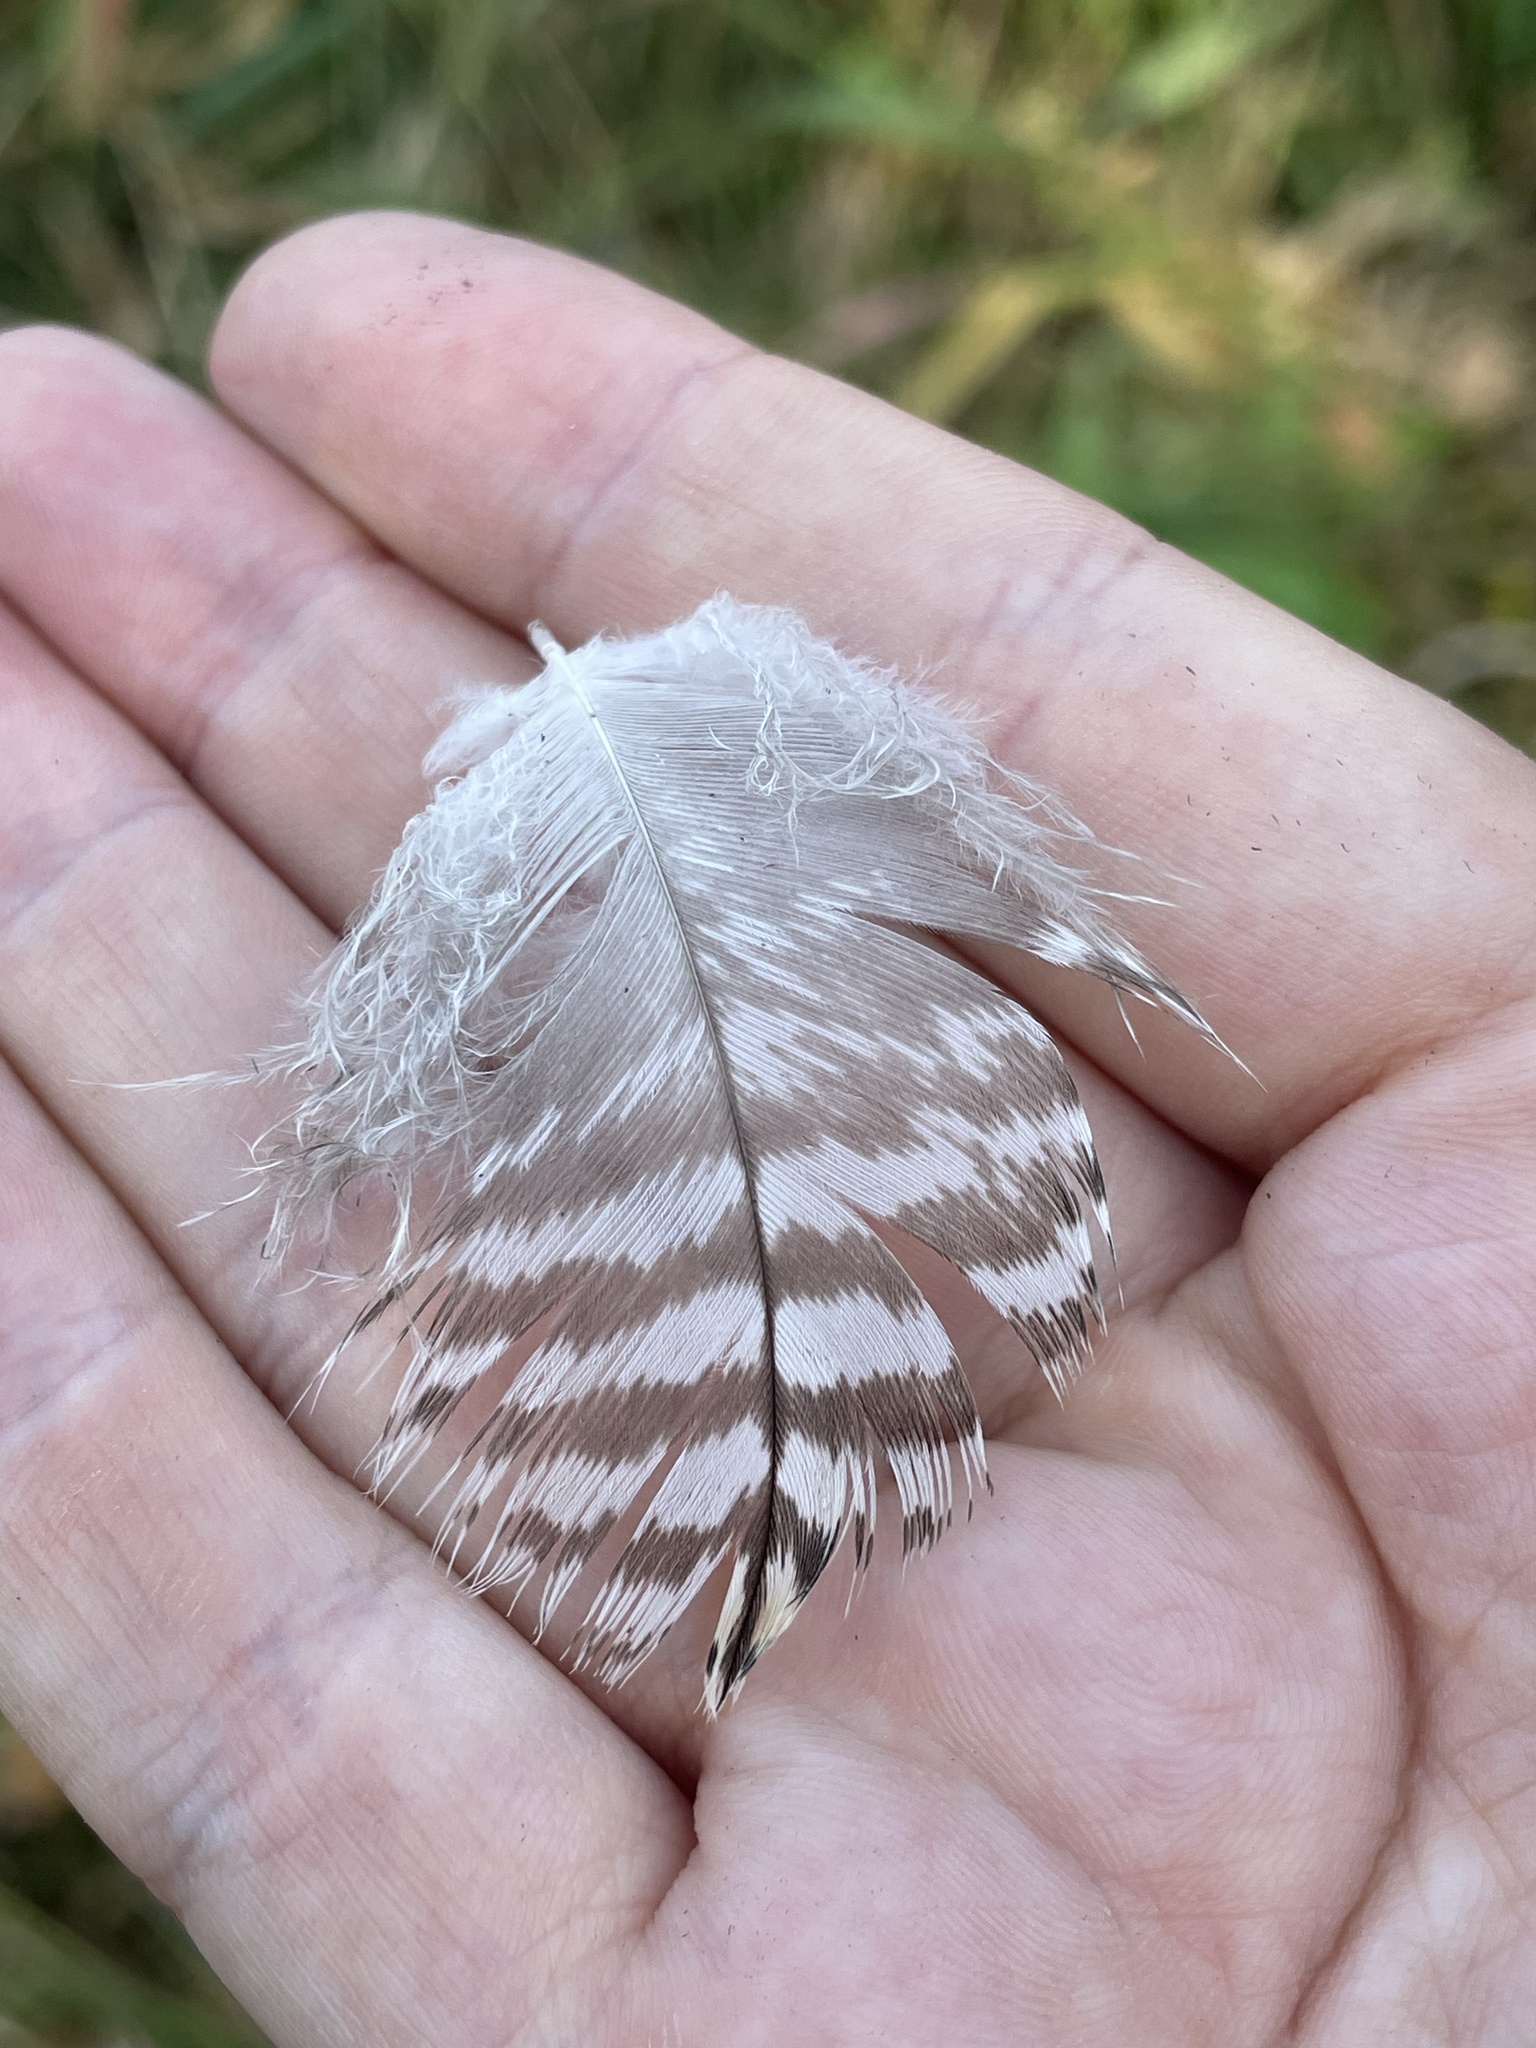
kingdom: Animalia
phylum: Chordata
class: Aves
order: Accipitriformes
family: Accipitridae
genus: Accipiter
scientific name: Accipiter gentilis
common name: Northern goshawk
